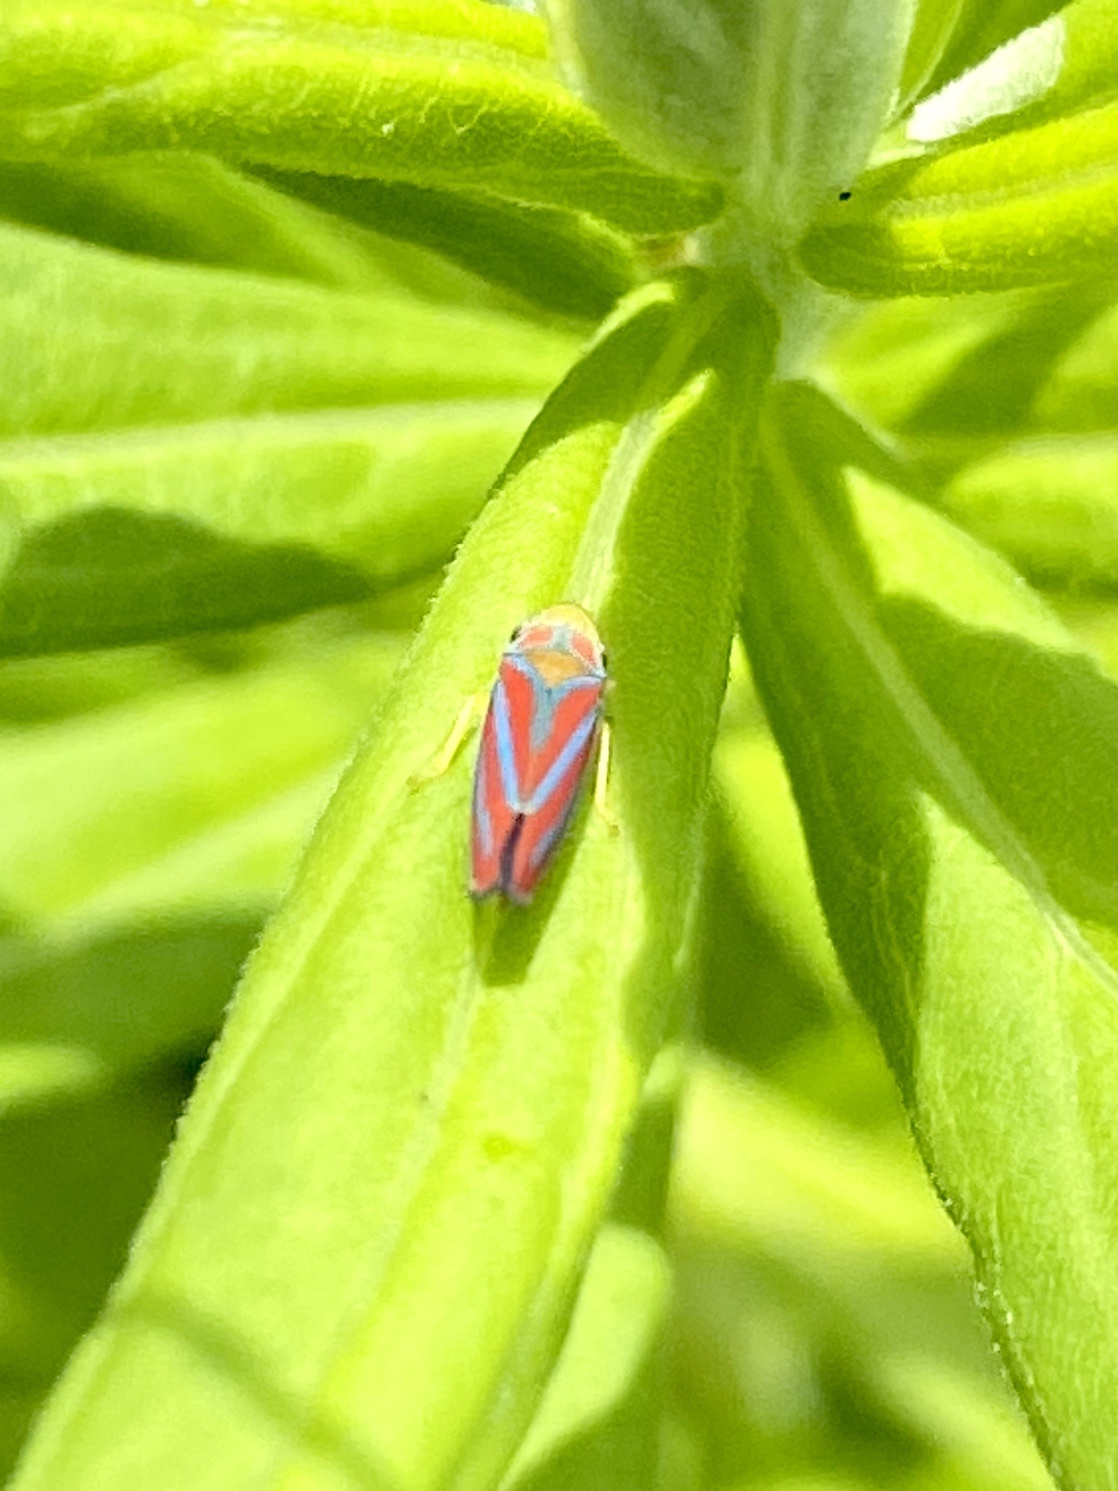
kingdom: Animalia
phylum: Arthropoda
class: Insecta
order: Hemiptera
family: Cicadellidae
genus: Graphocephala
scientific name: Graphocephala coccinea
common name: Candy-striped leafhopper
